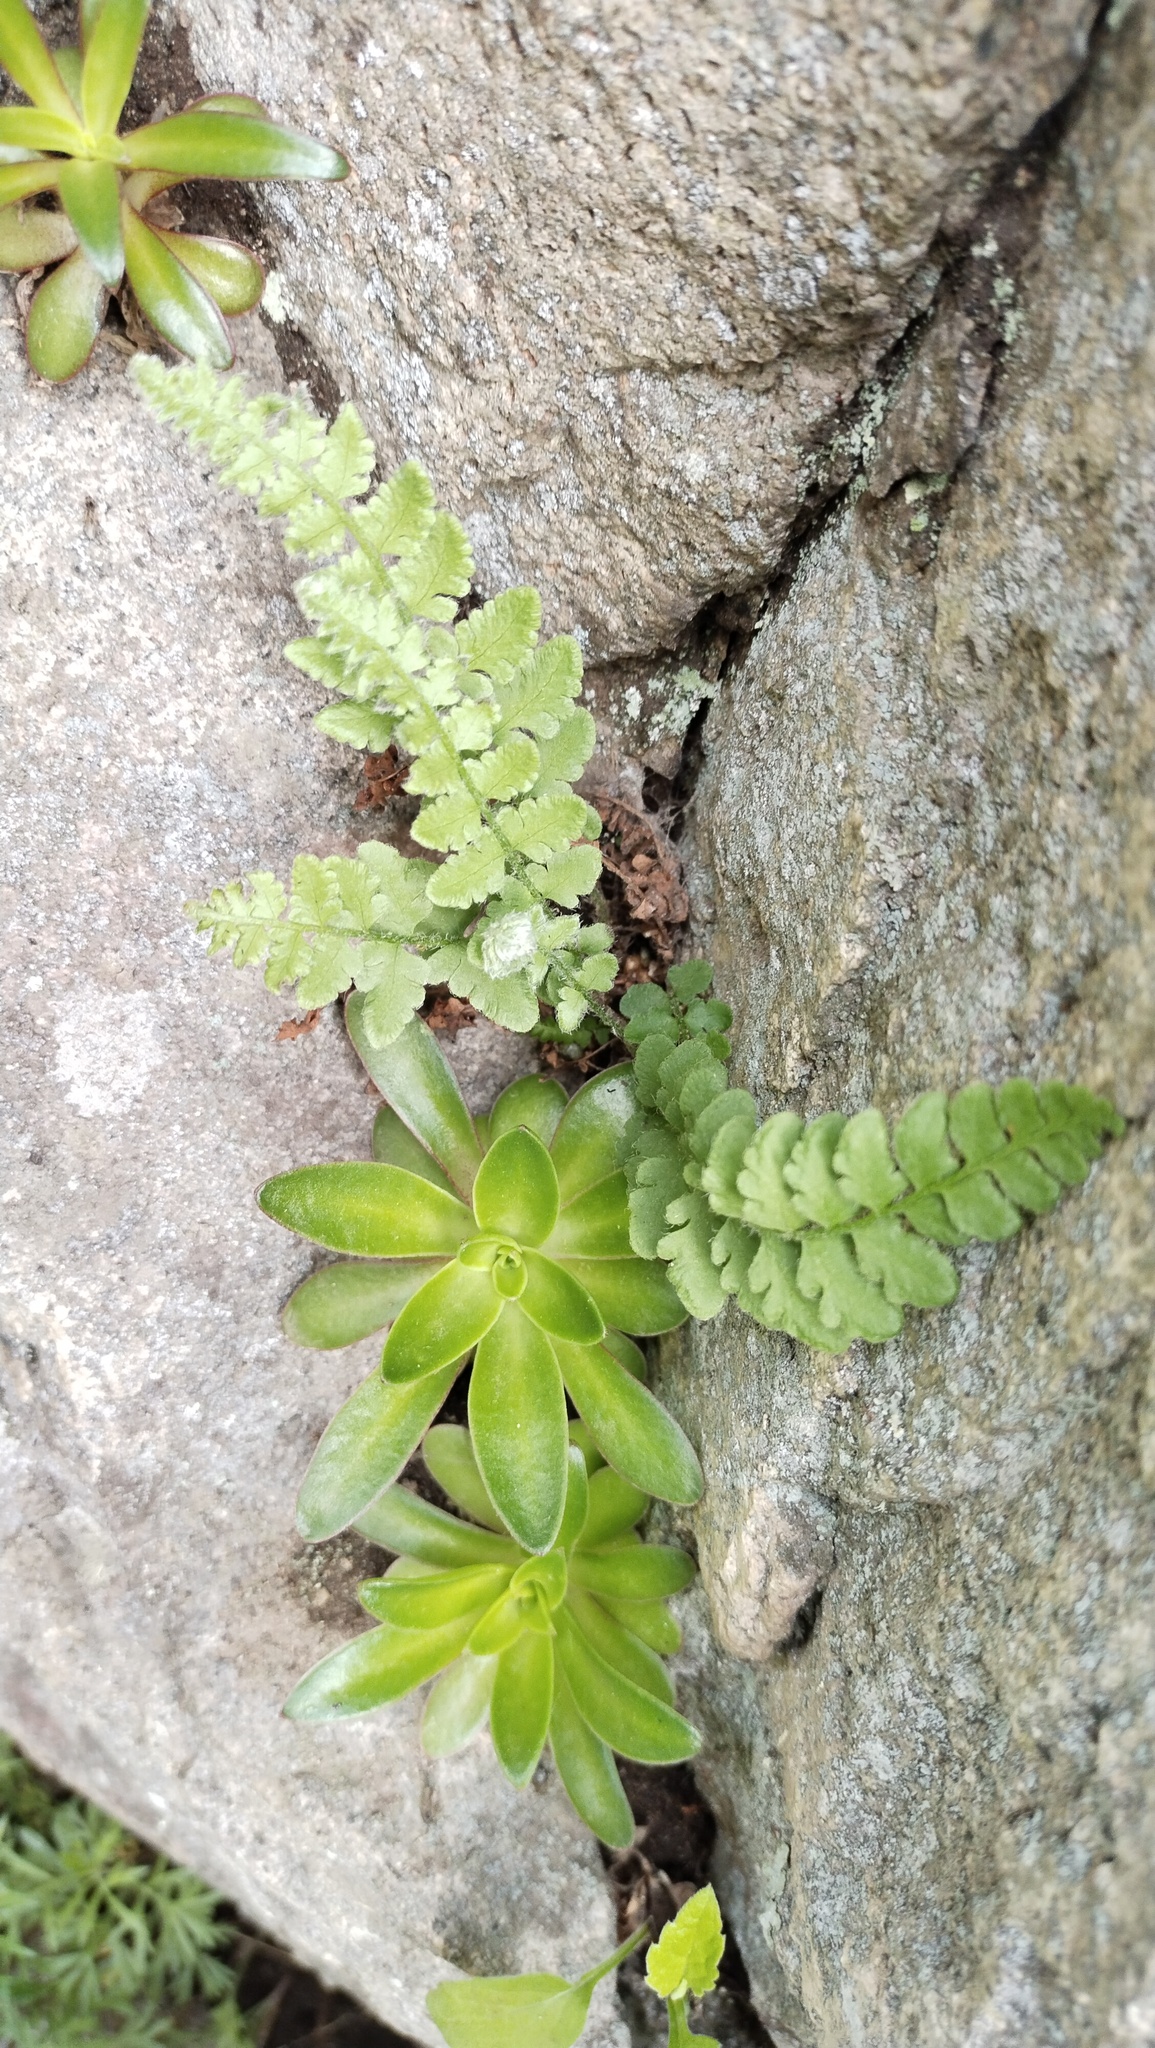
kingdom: Plantae
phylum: Tracheophyta
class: Polypodiopsida
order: Polypodiales
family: Woodsiaceae
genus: Woodsia
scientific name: Woodsia subcordata
